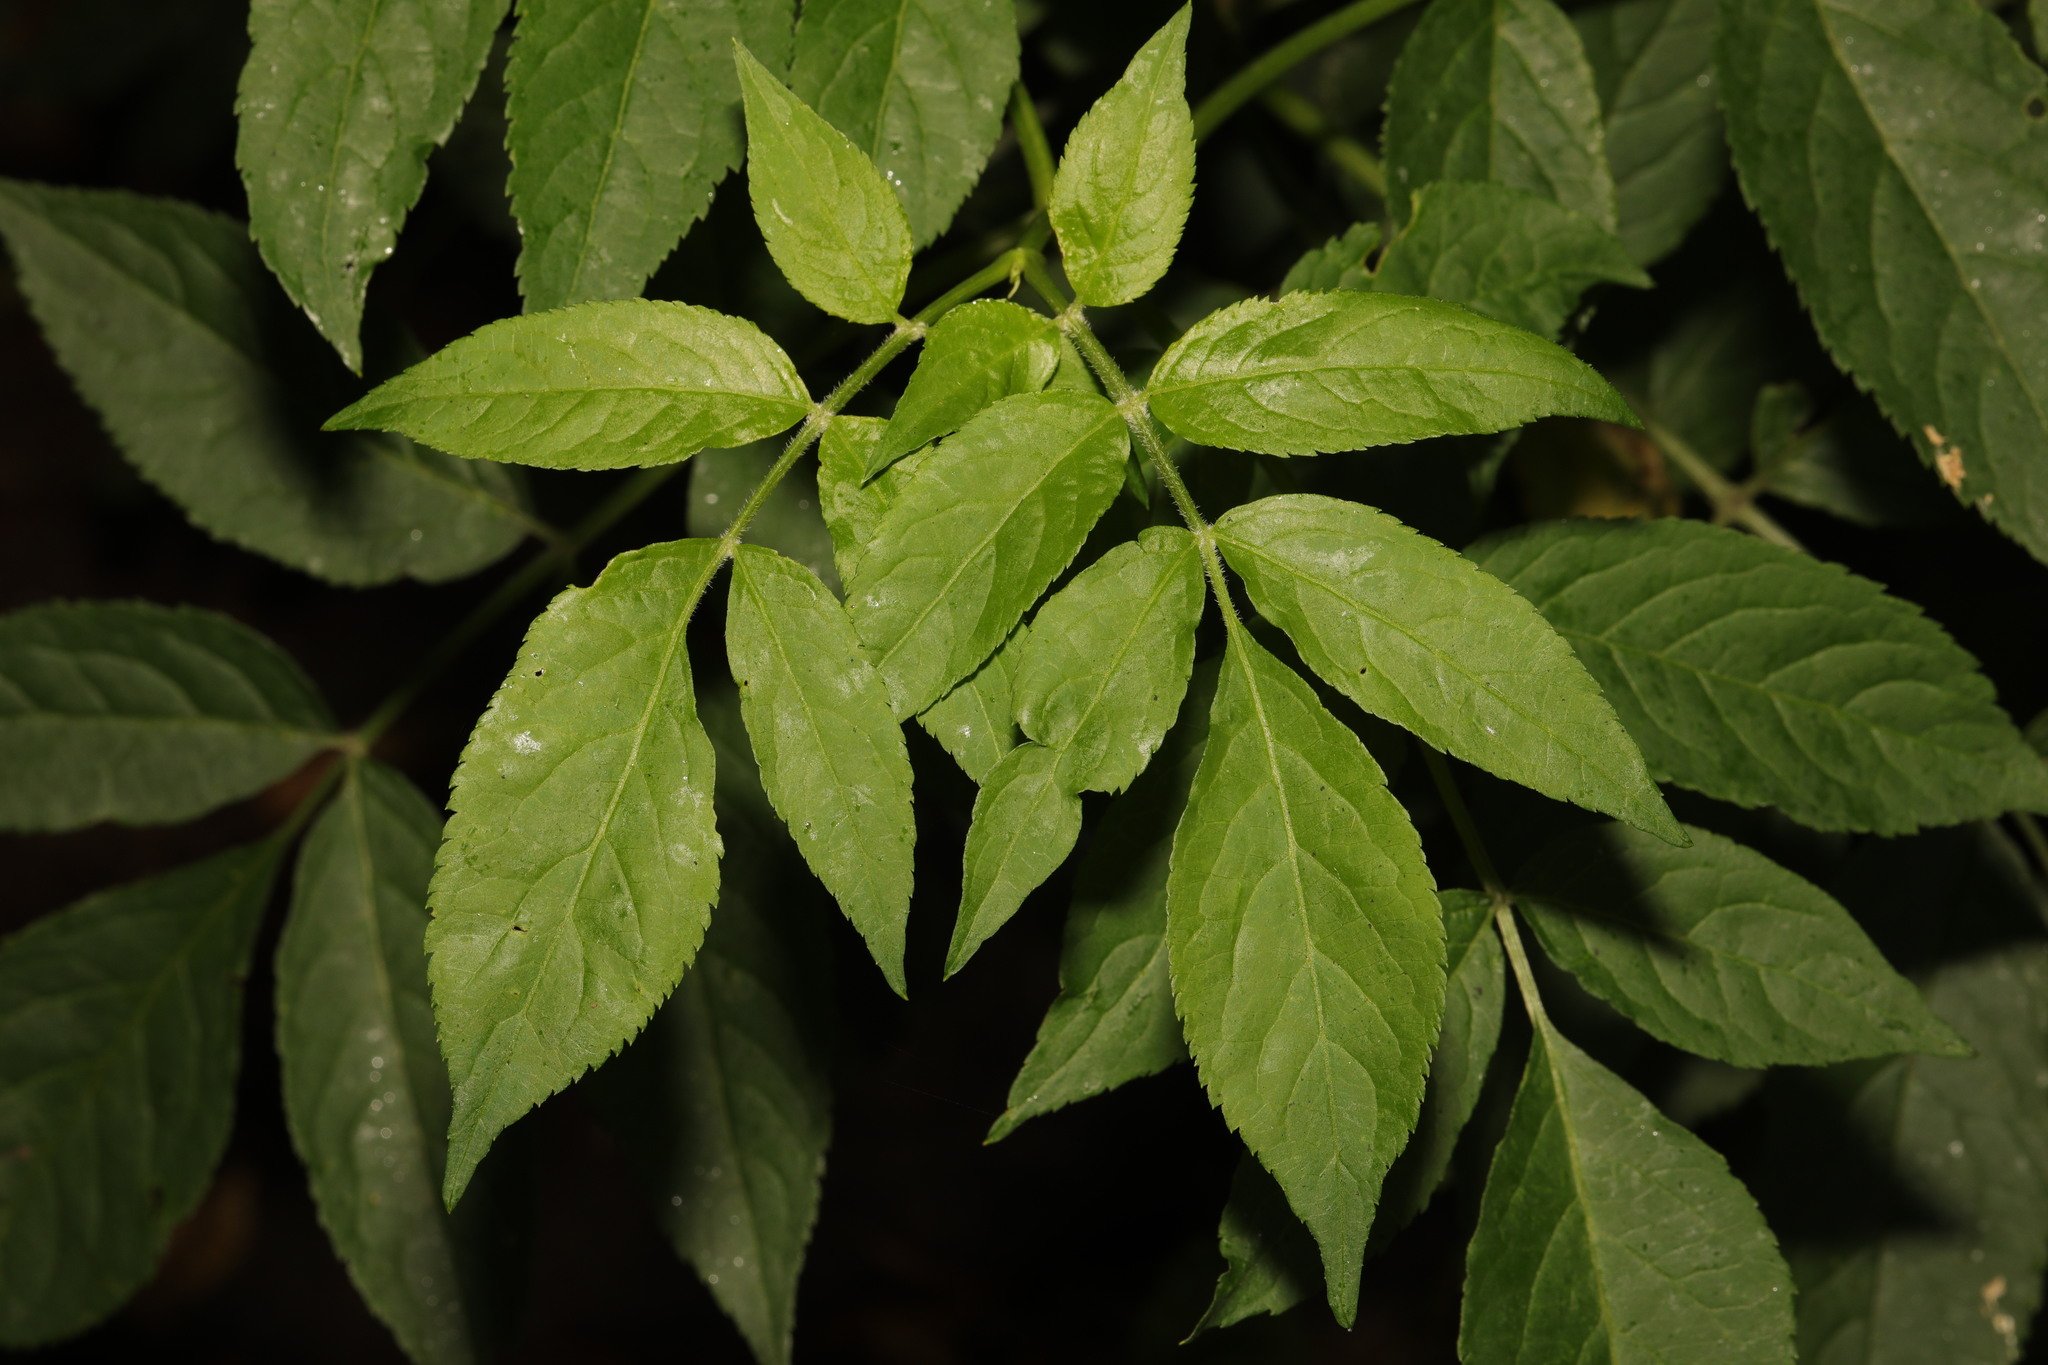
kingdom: Plantae
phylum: Tracheophyta
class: Magnoliopsida
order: Dipsacales
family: Viburnaceae
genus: Sambucus
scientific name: Sambucus nigra
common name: Elder
